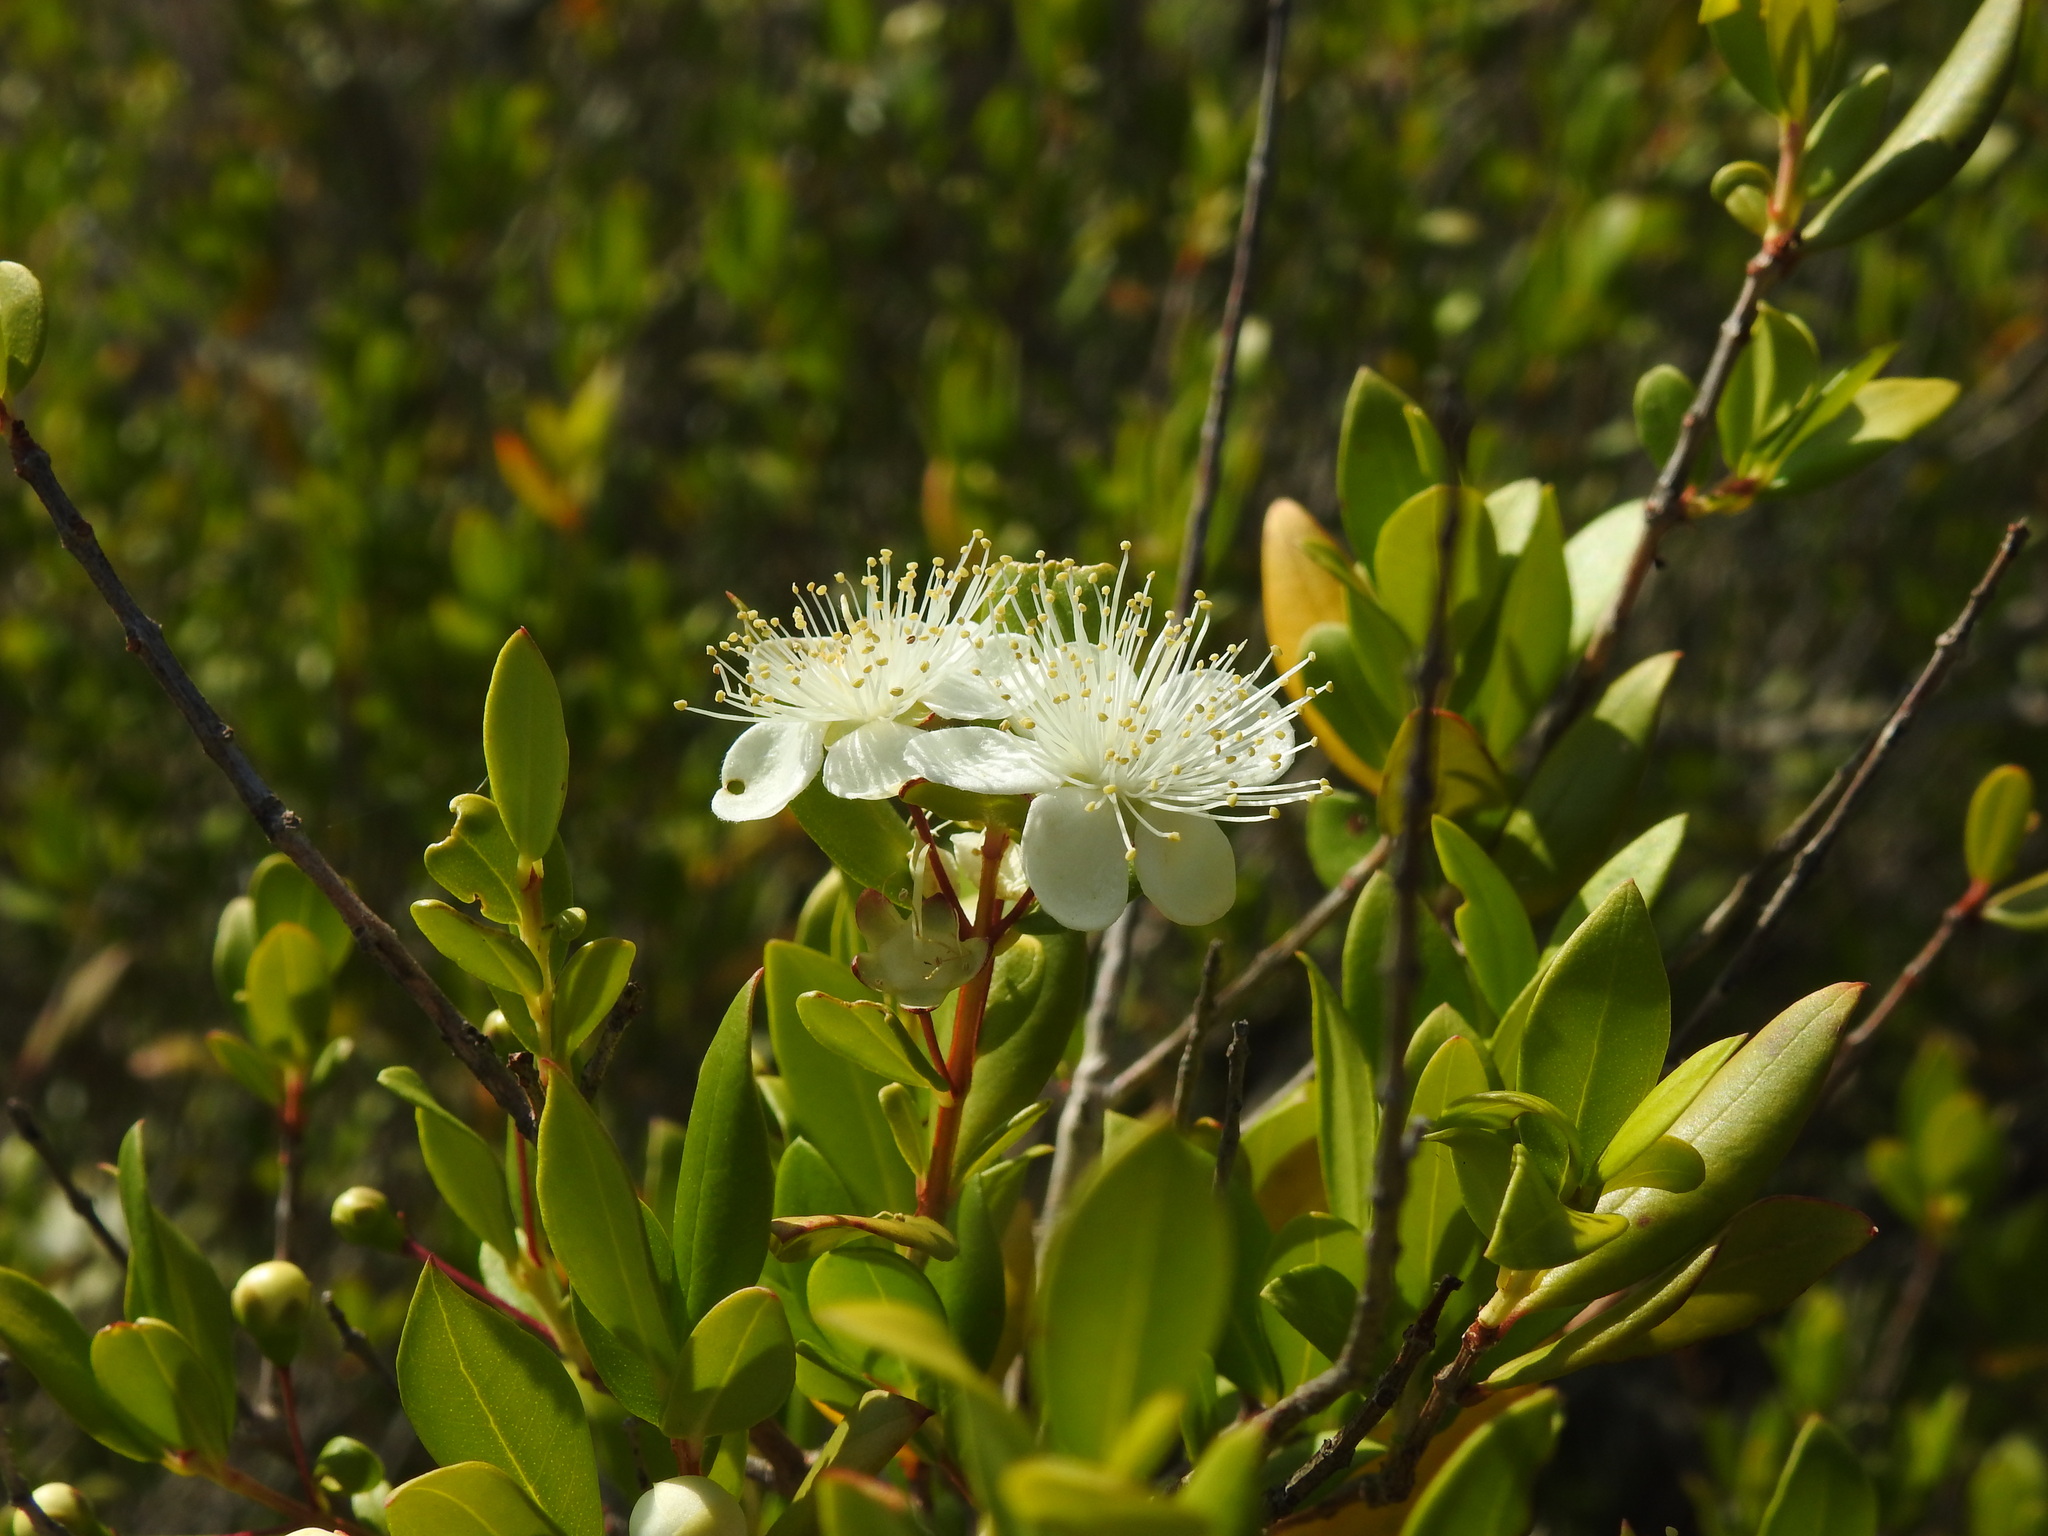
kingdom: Plantae
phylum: Tracheophyta
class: Magnoliopsida
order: Myrtales
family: Myrtaceae
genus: Myrtus
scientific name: Myrtus communis
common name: Myrtle
